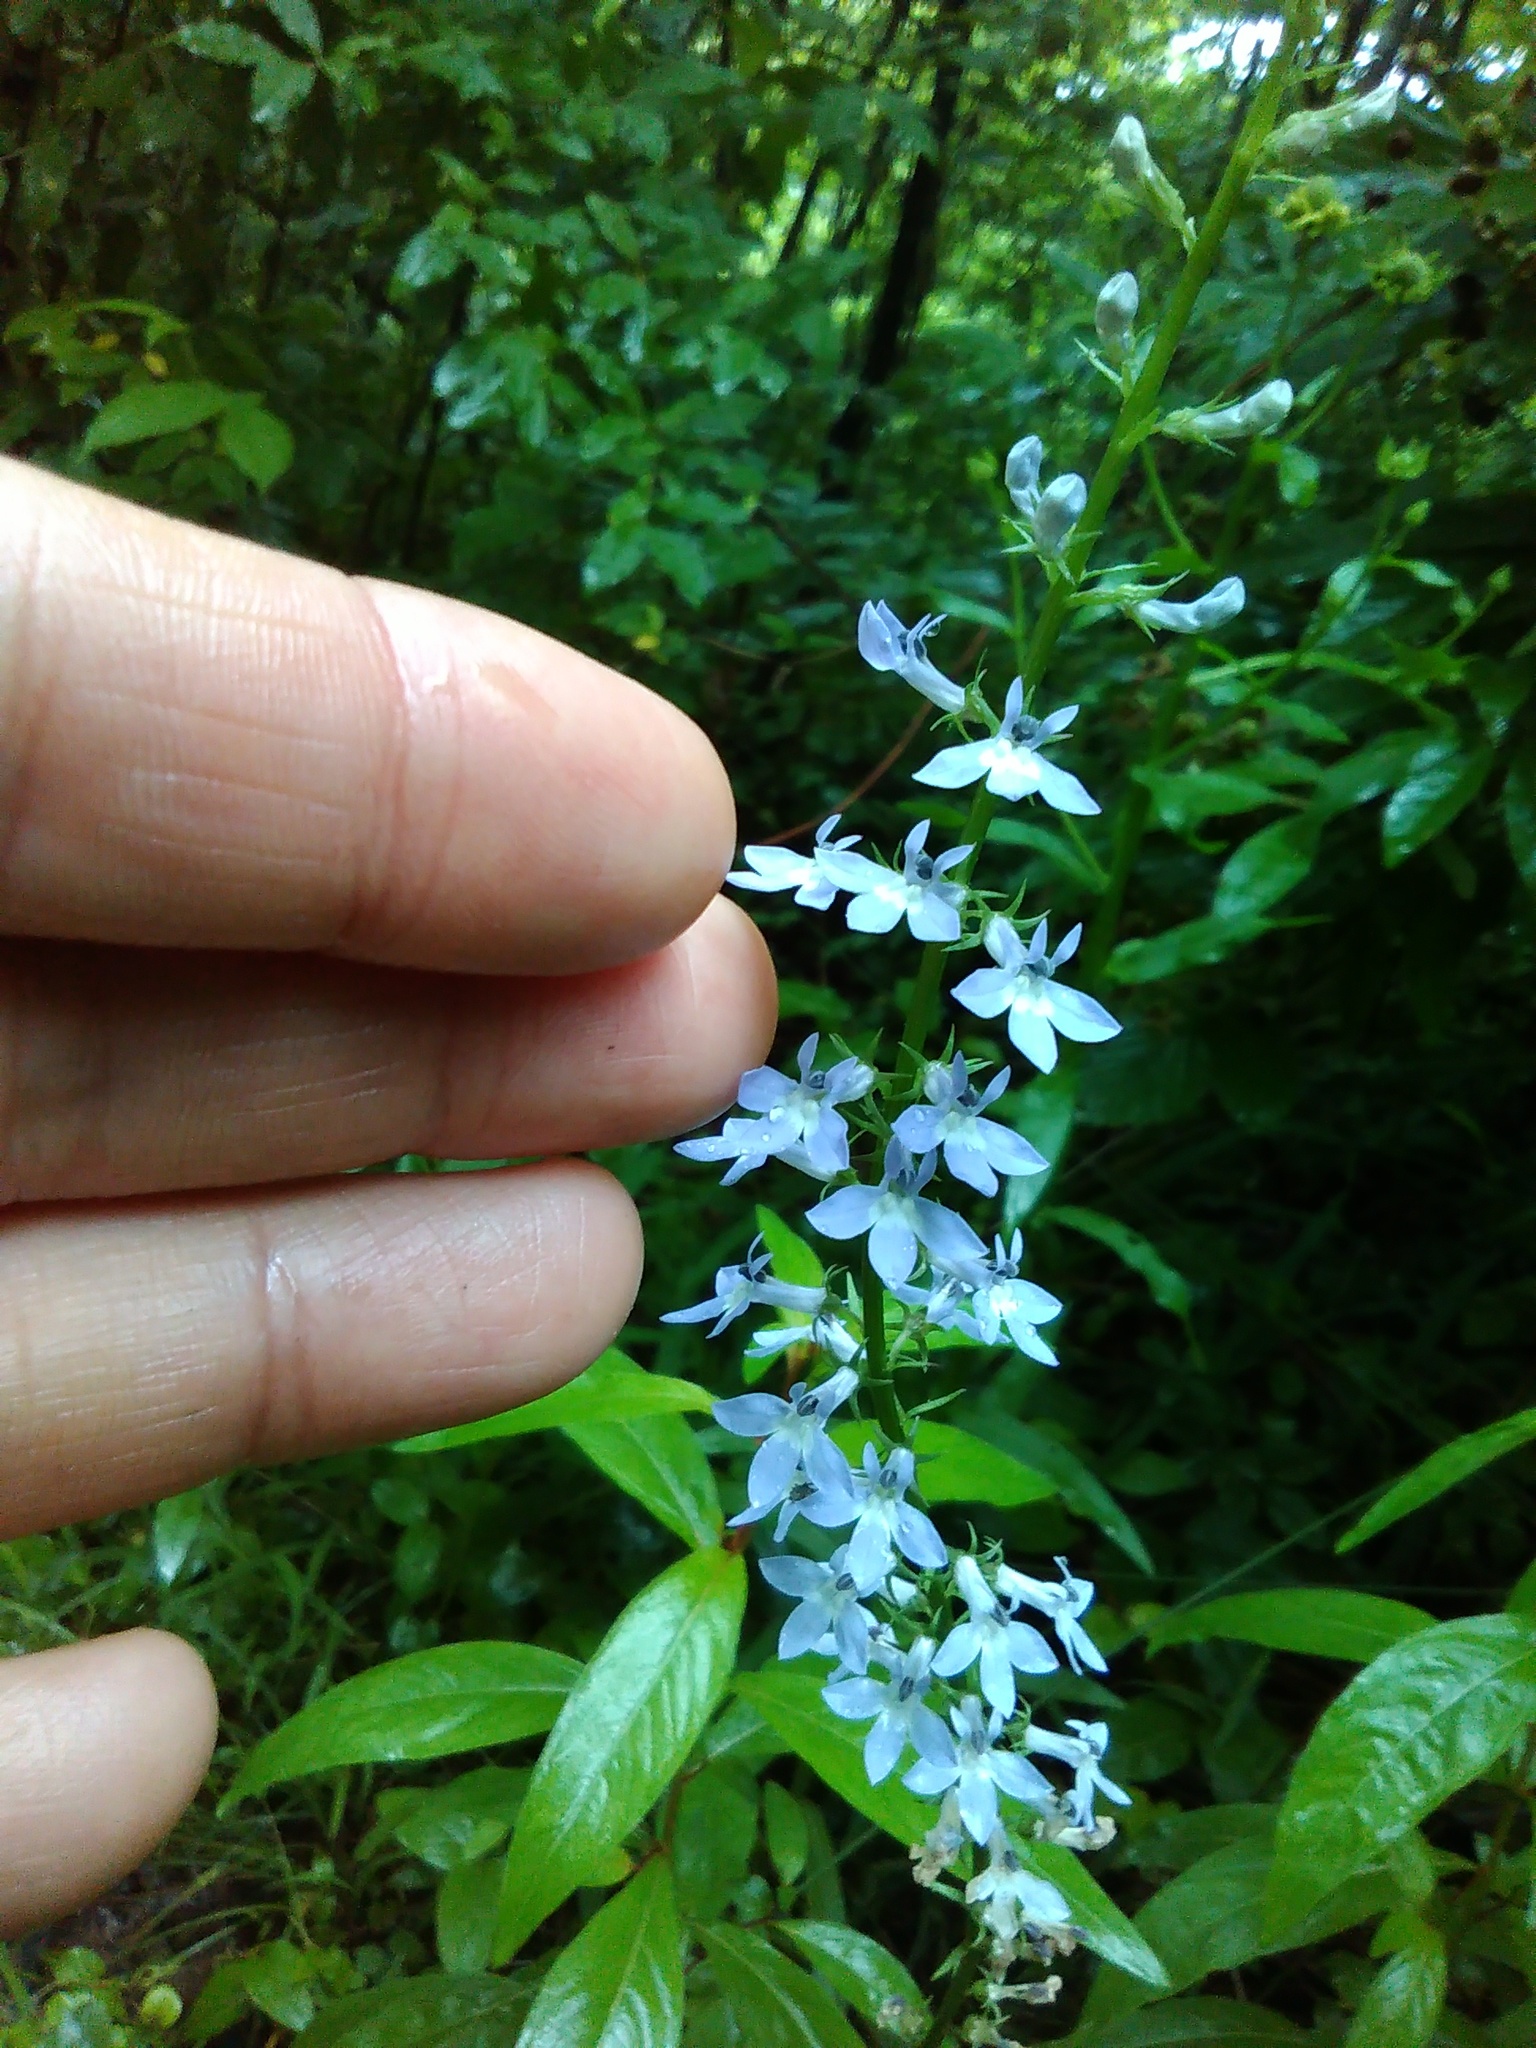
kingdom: Plantae
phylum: Tracheophyta
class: Magnoliopsida
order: Asterales
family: Campanulaceae
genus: Lobelia
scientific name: Lobelia spicata
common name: Pale-spike lobelia
